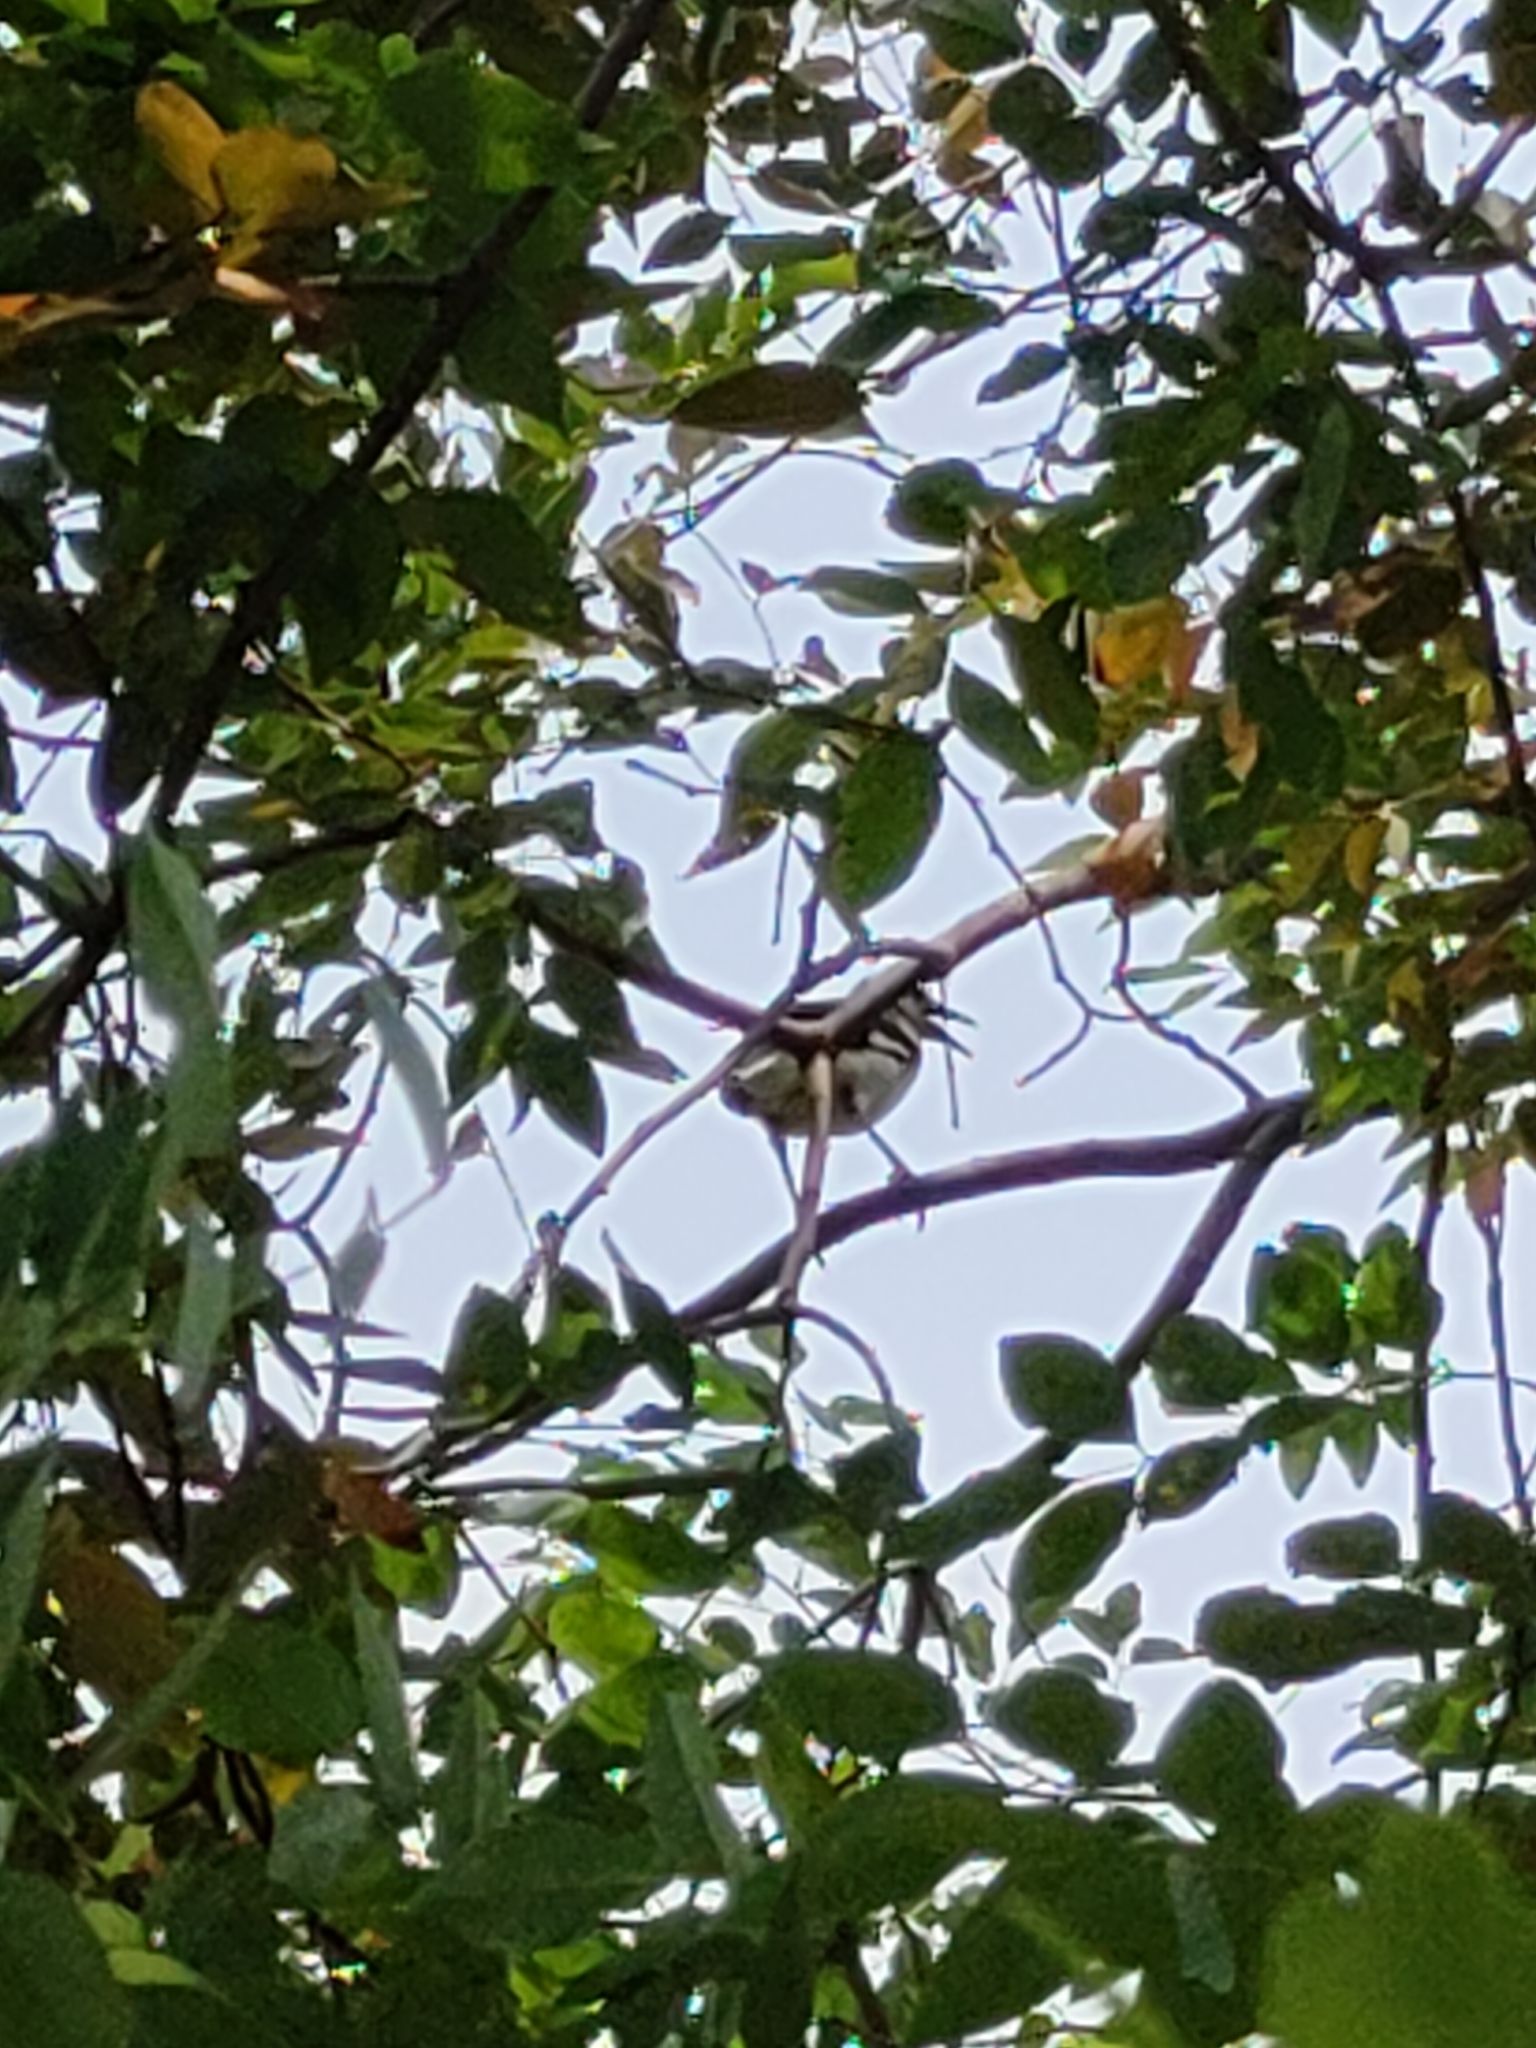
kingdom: Animalia
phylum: Chordata
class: Aves
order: Passeriformes
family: Sturnidae
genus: Gracupica
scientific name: Gracupica nigricollis
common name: Black-collared starling
